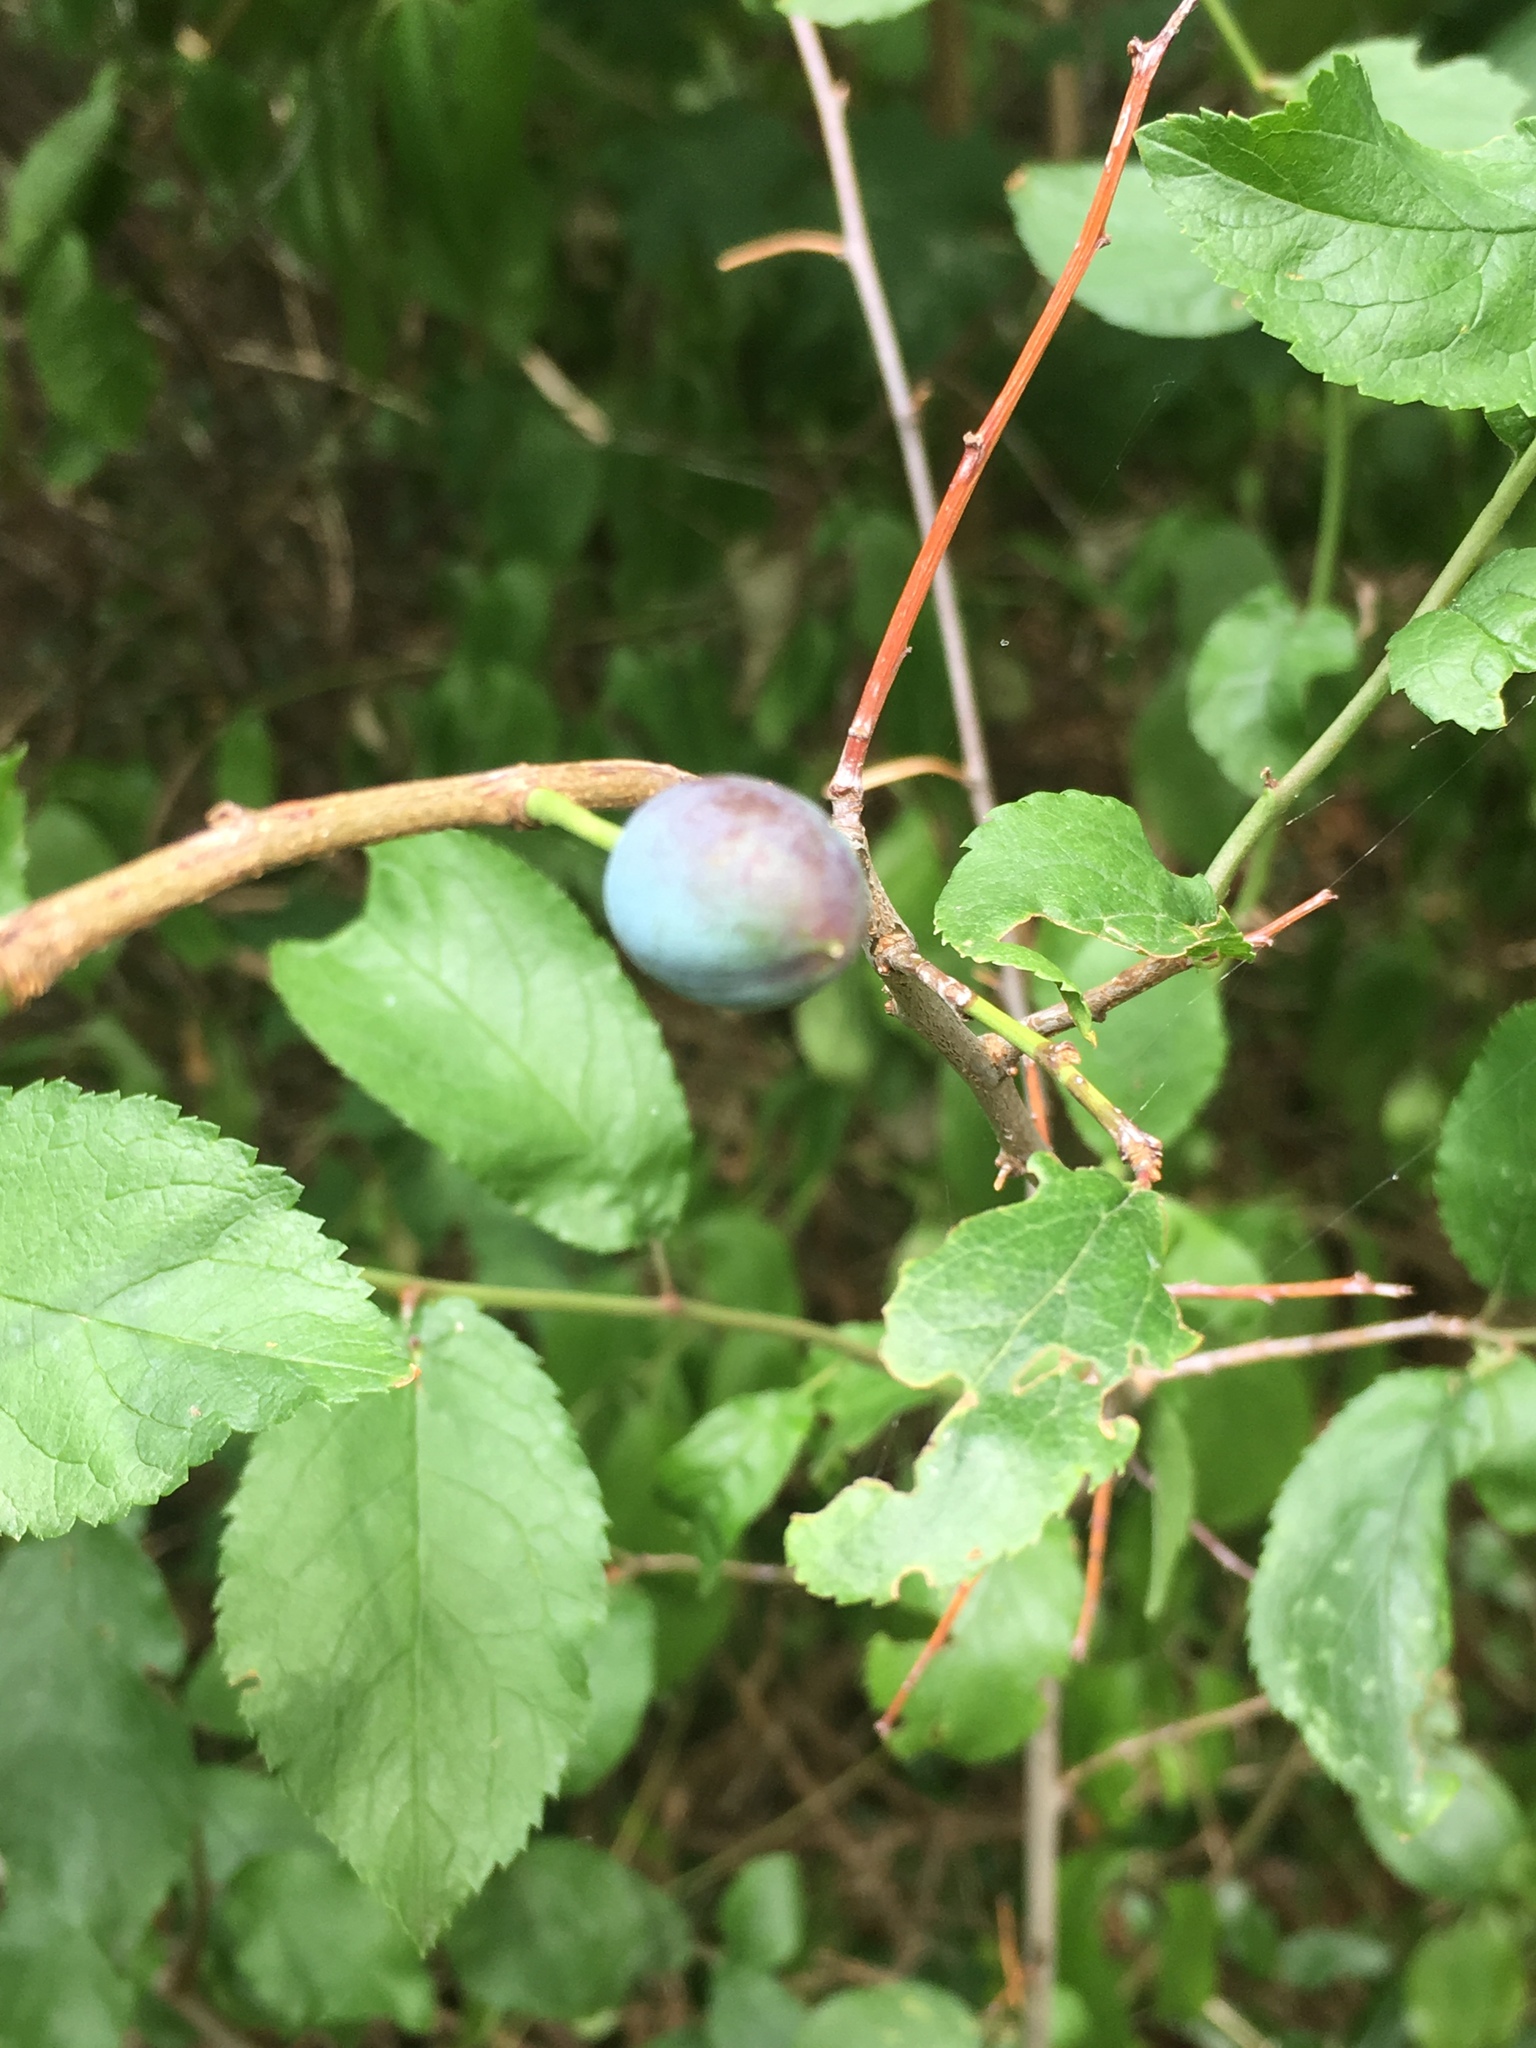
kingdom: Plantae
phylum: Tracheophyta
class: Magnoliopsida
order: Rosales
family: Rosaceae
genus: Prunus
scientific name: Prunus spinosa
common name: Blackthorn
